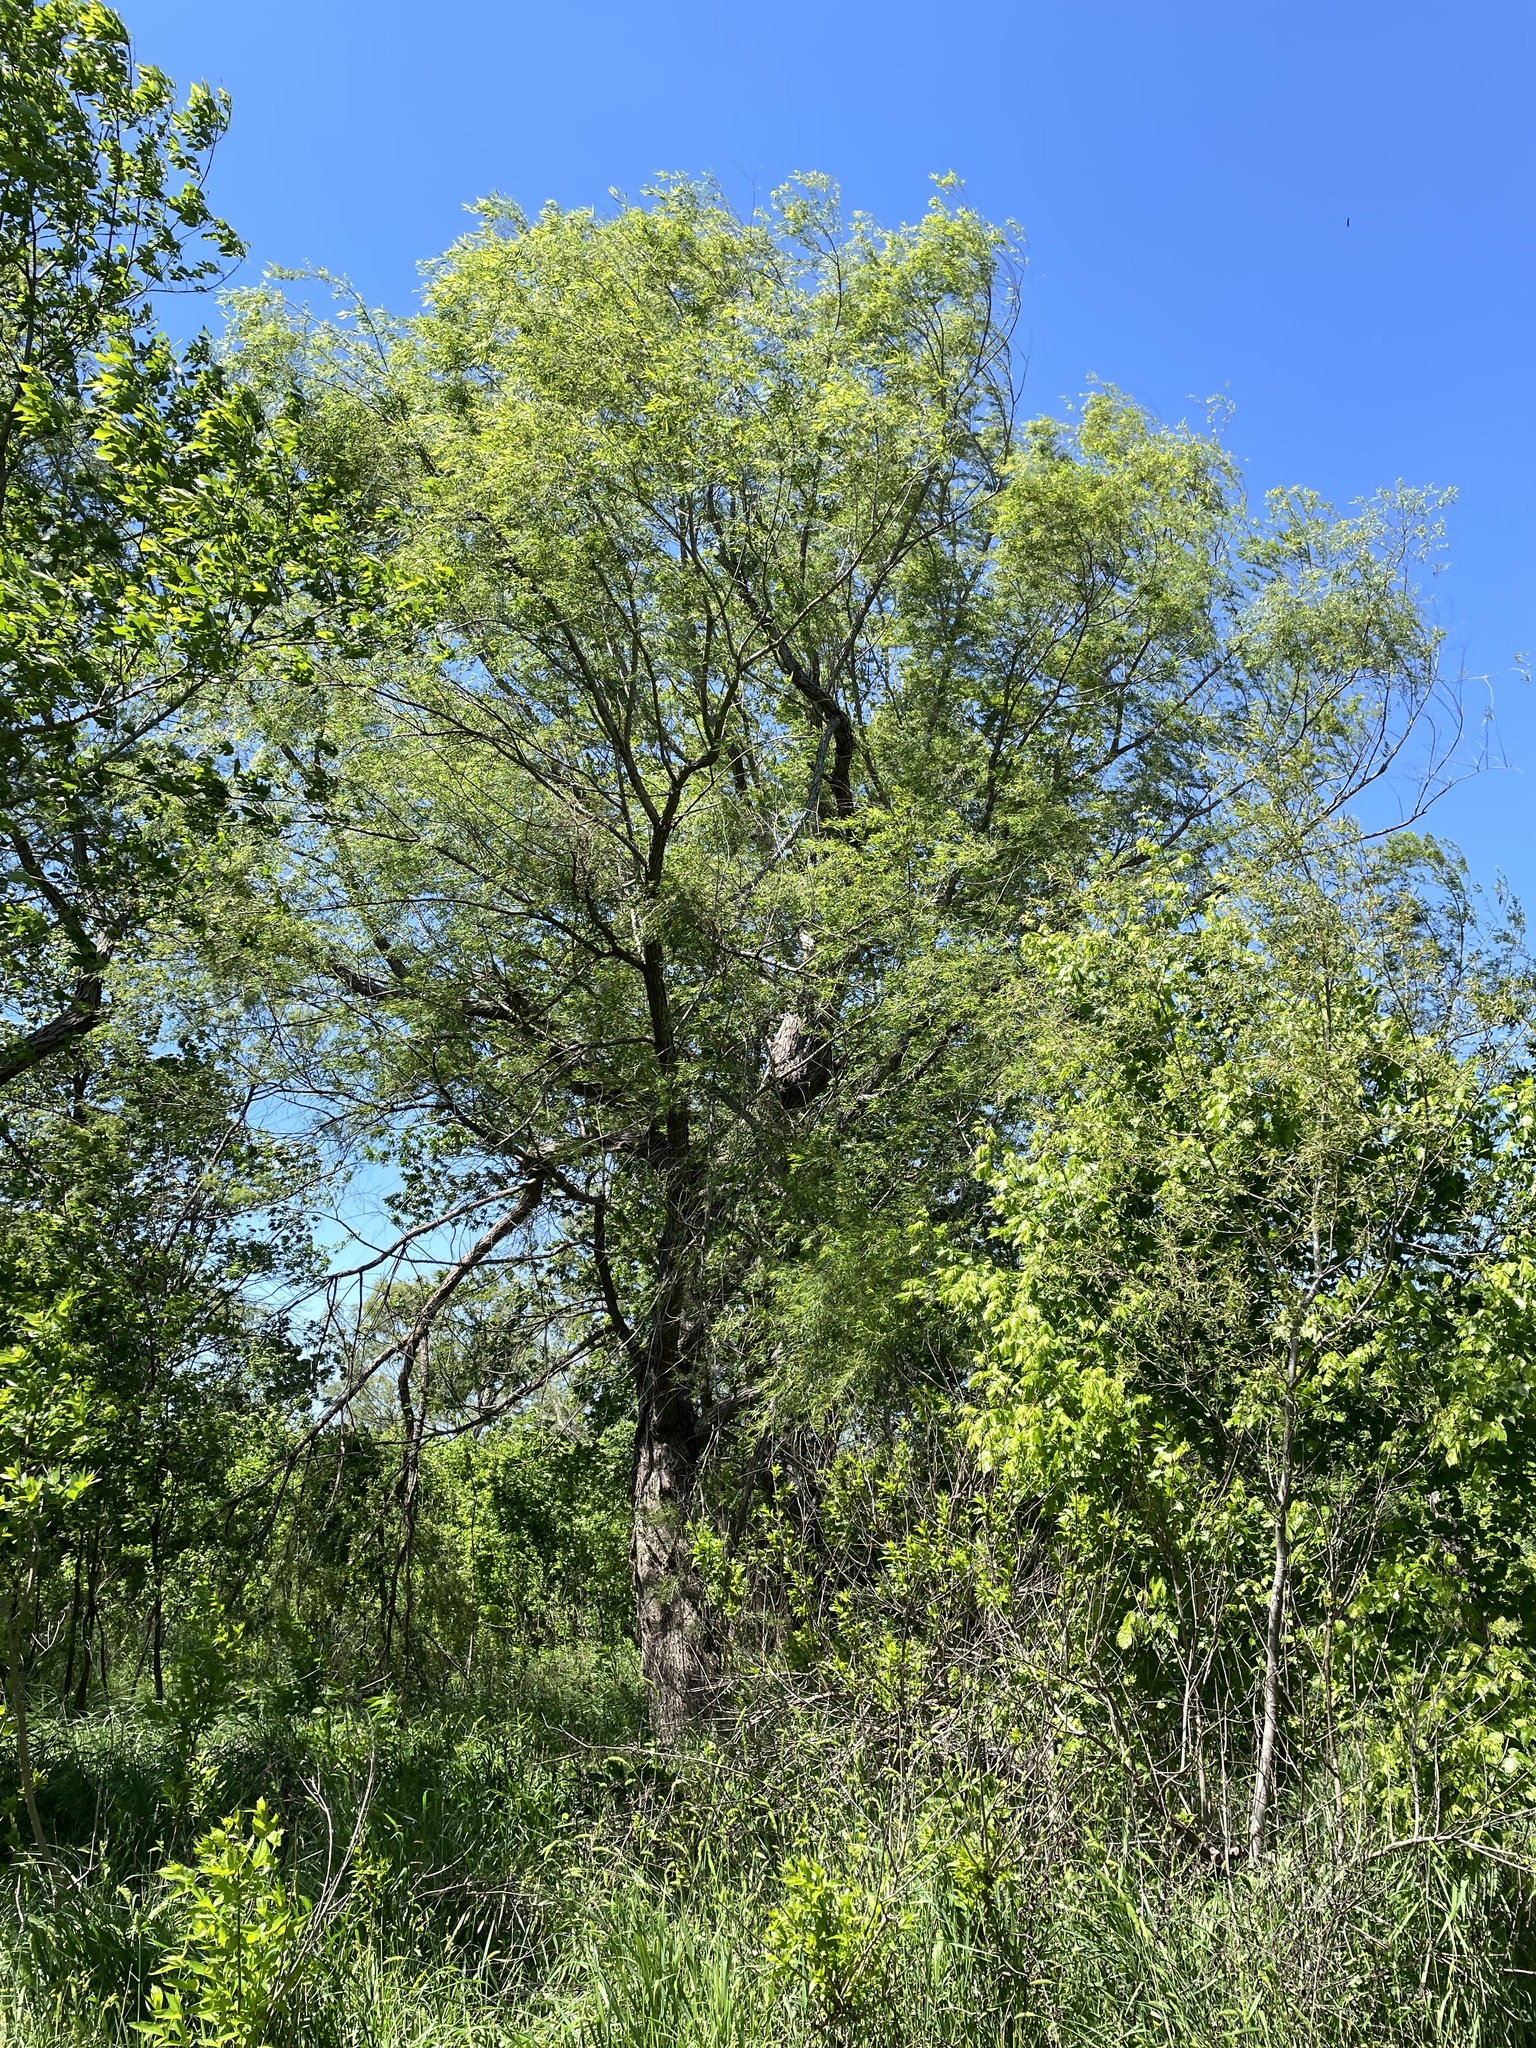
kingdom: Plantae
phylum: Tracheophyta
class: Magnoliopsida
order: Malpighiales
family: Salicaceae
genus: Salix
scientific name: Salix nigra
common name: Black willow
